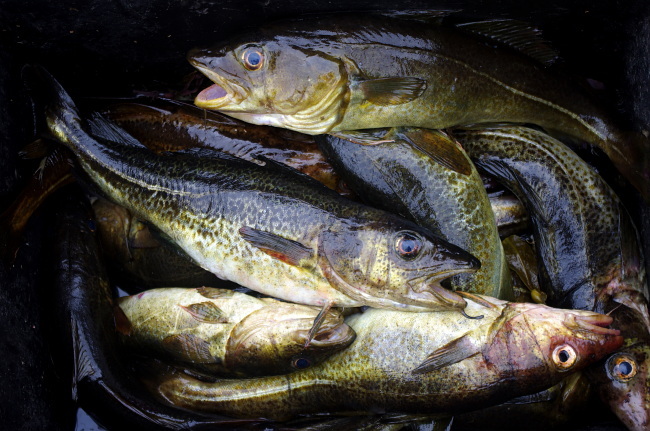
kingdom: Animalia
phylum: Chordata
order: Gadiformes
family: Gadidae
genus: Gadus
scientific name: Gadus morhua
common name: Atlantic cod
